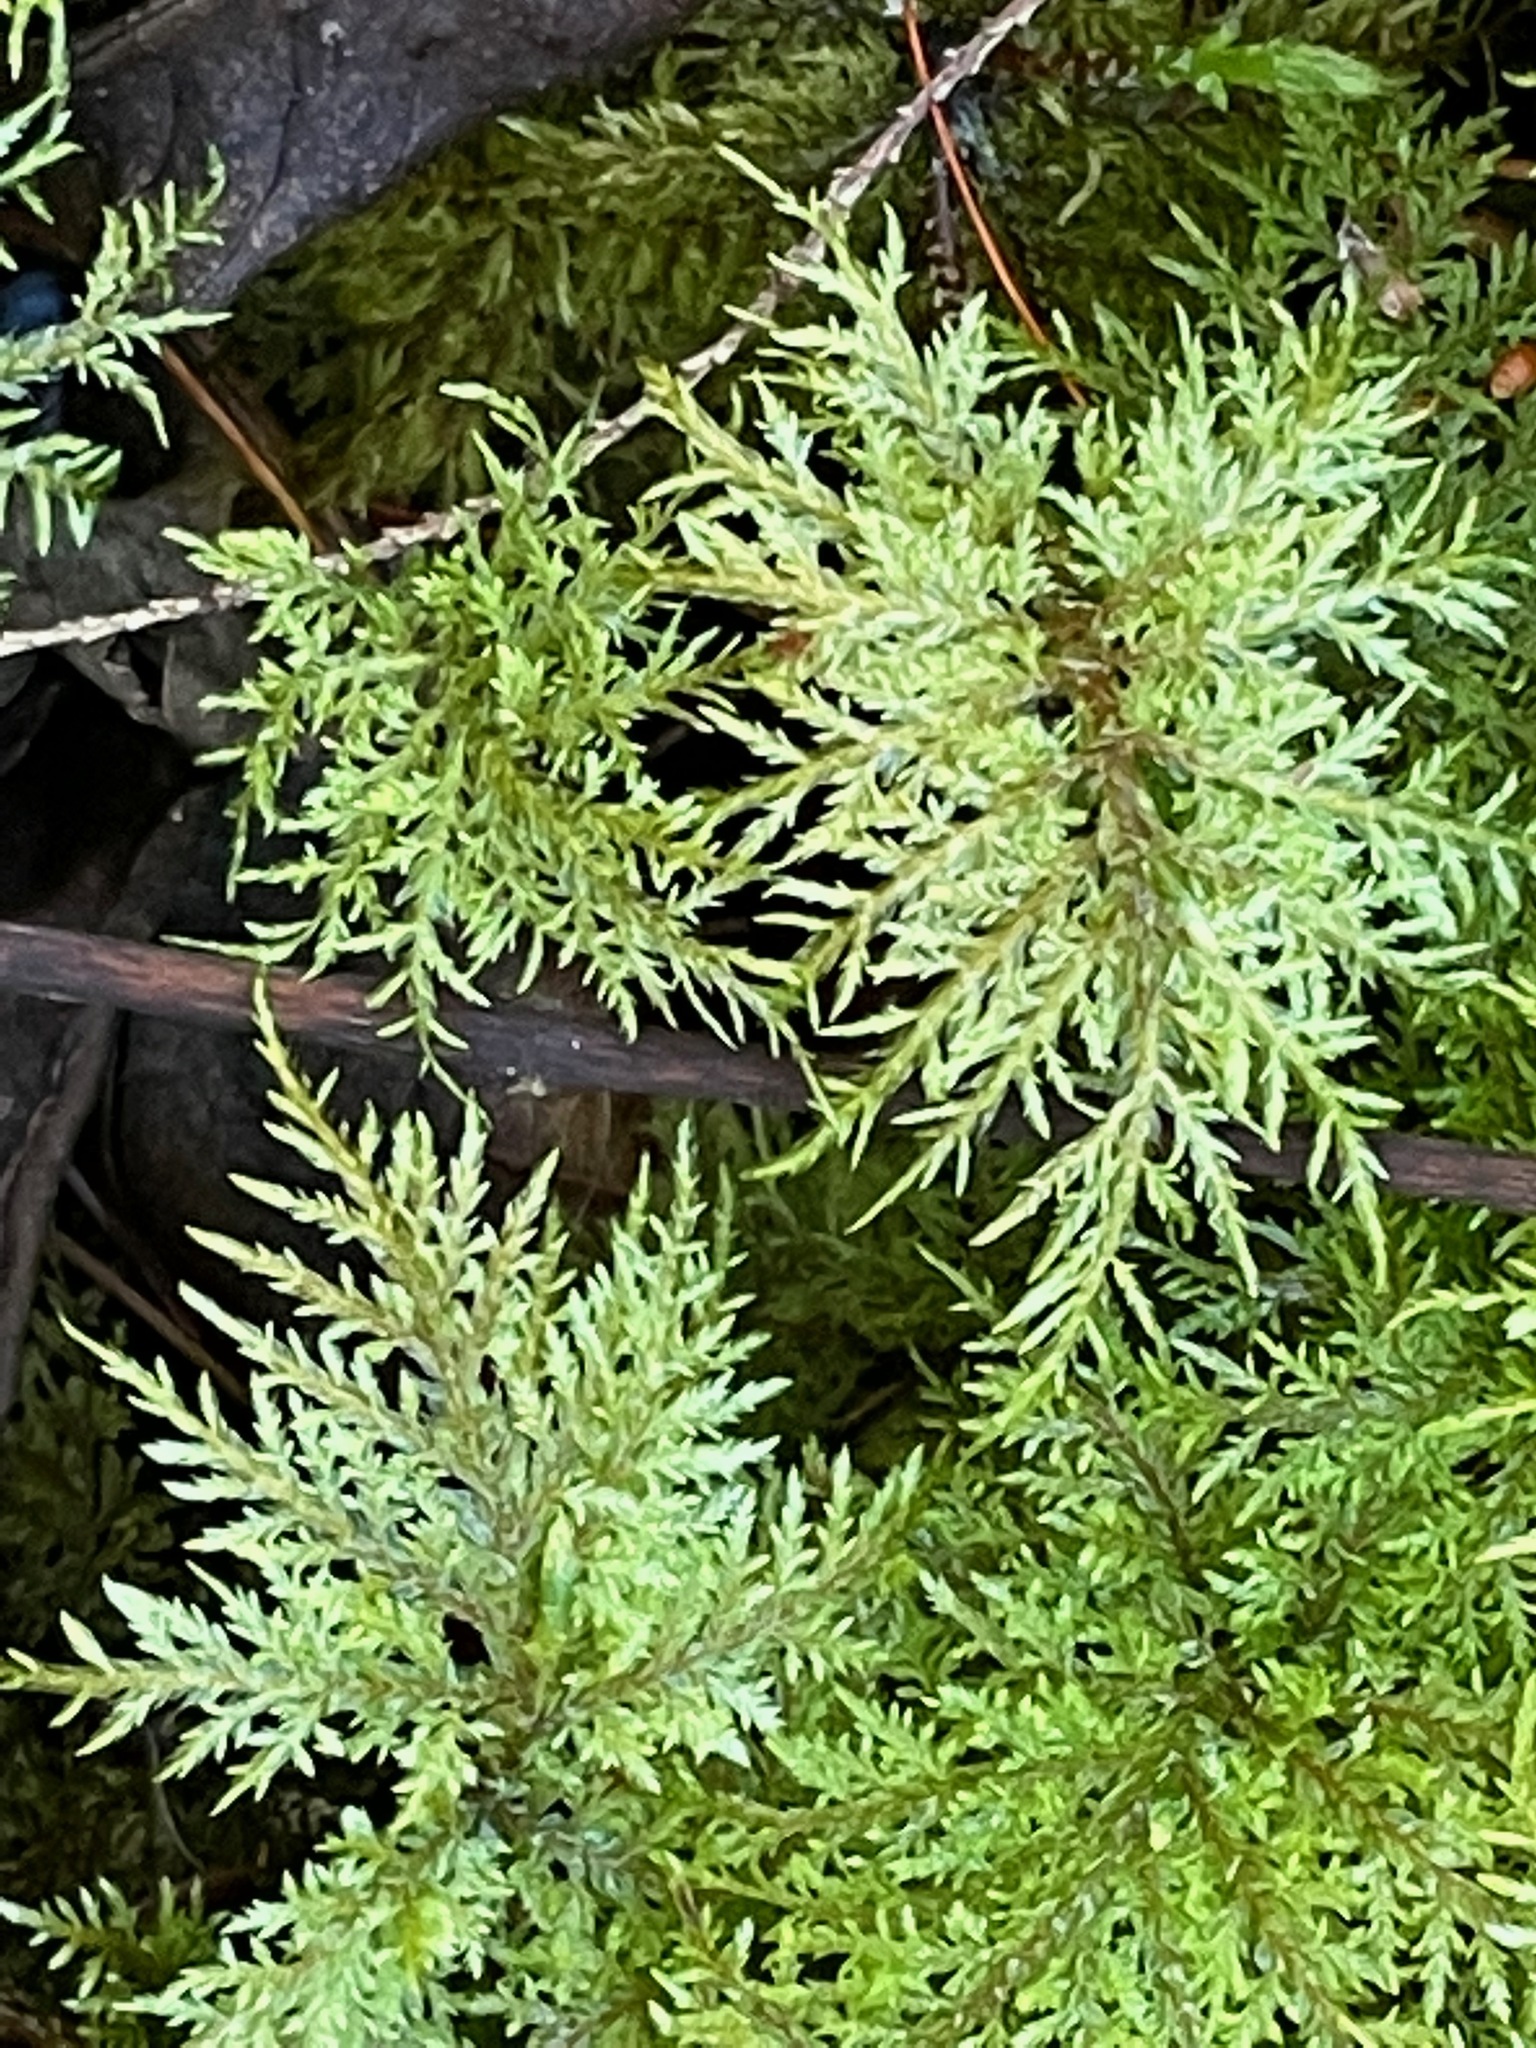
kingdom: Plantae
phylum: Bryophyta
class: Bryopsida
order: Hypnales
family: Hylocomiaceae
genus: Hylocomium
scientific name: Hylocomium splendens
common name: Stairstep moss
